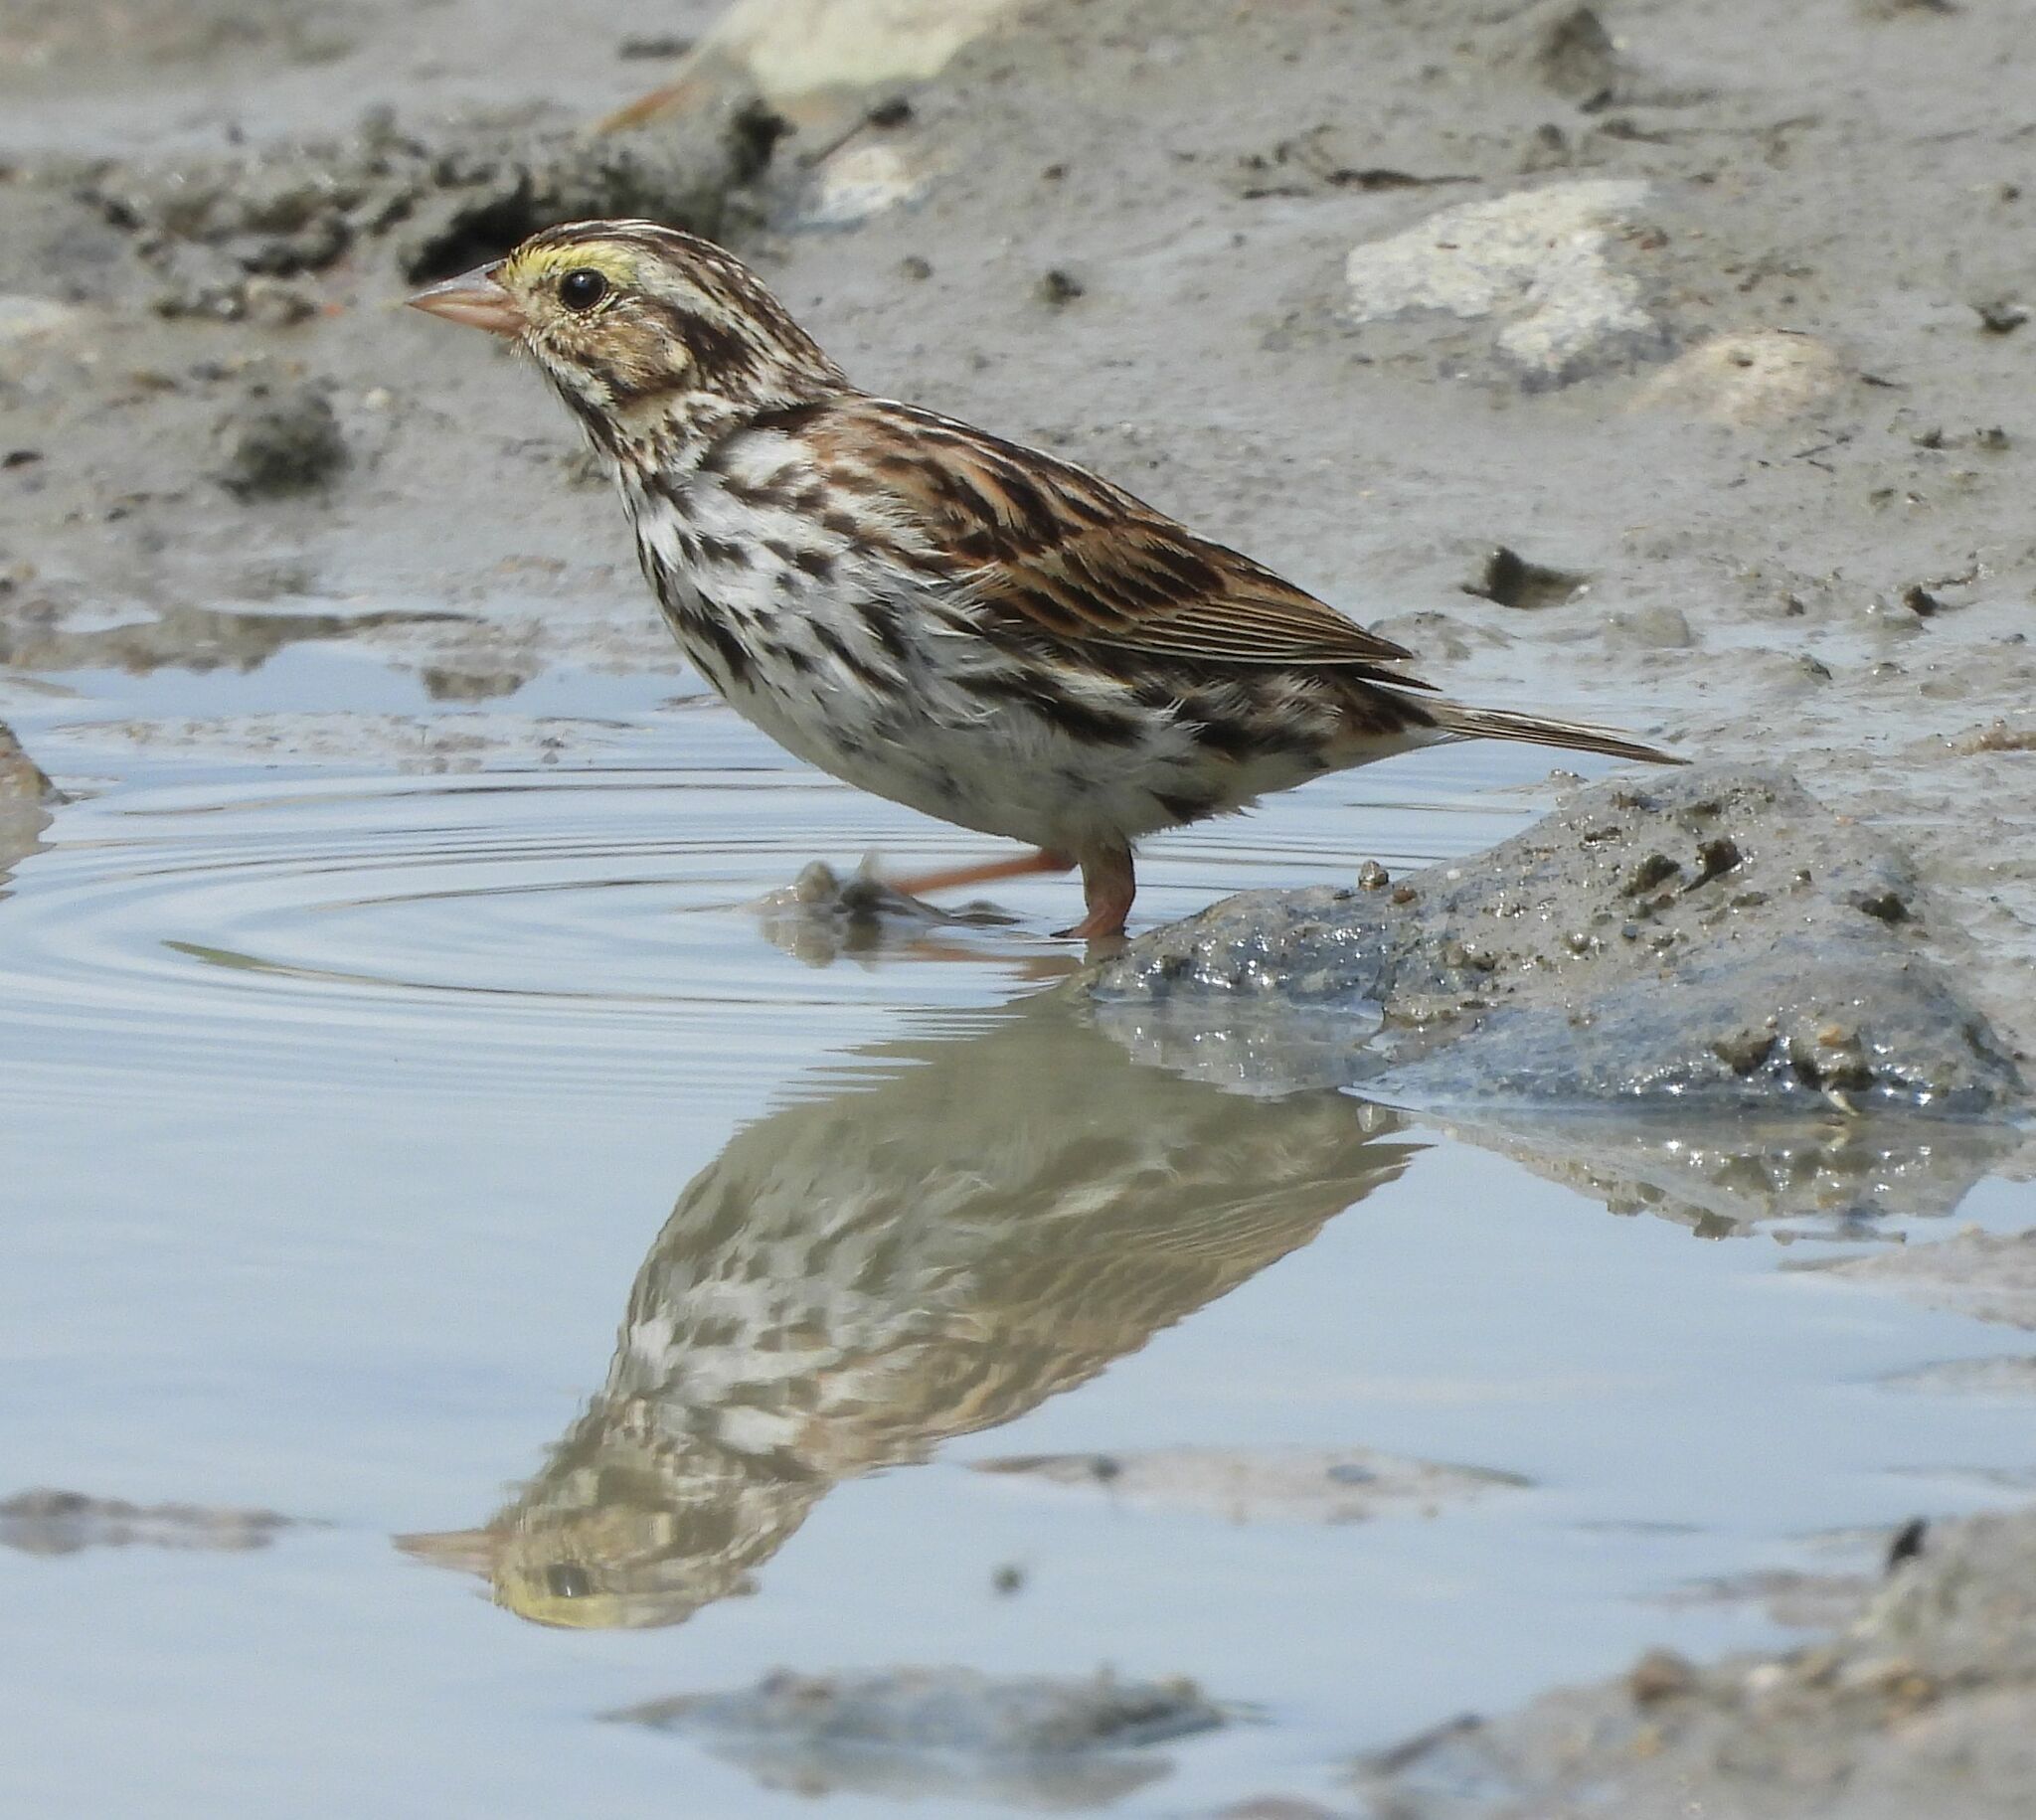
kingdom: Animalia
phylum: Chordata
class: Aves
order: Passeriformes
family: Passerellidae
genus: Passerculus
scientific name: Passerculus sandwichensis
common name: Savannah sparrow
